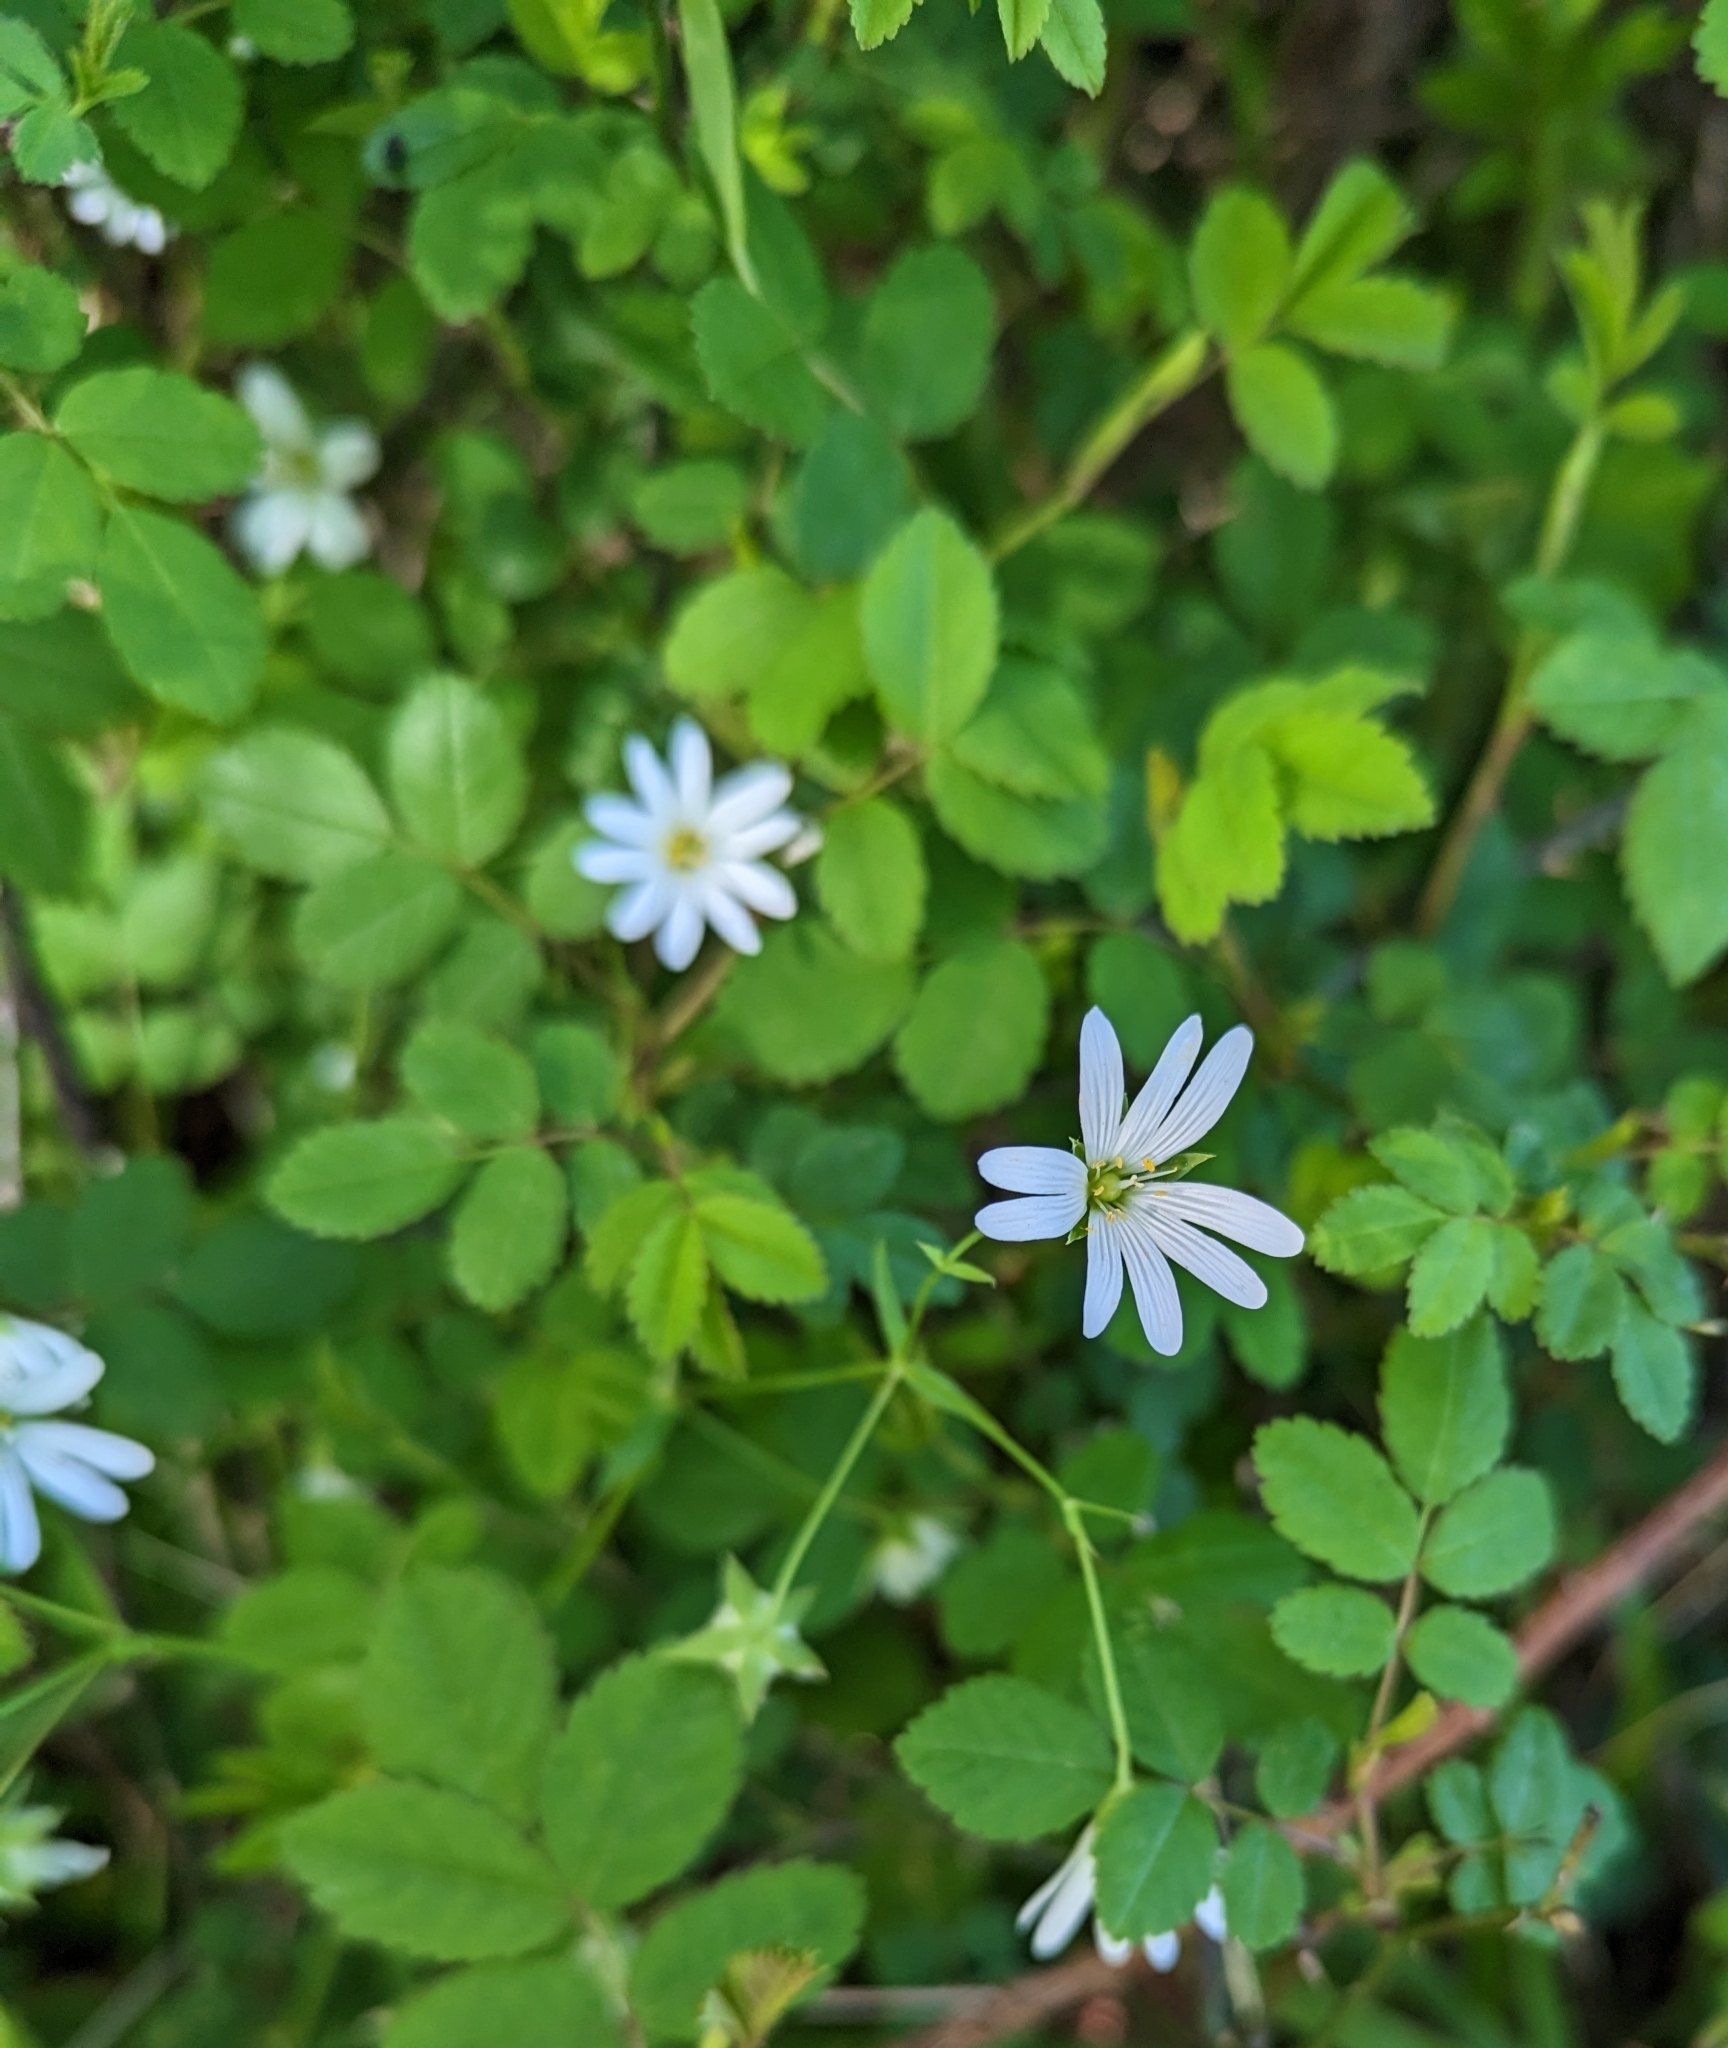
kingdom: Plantae
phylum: Tracheophyta
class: Magnoliopsida
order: Caryophyllales
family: Caryophyllaceae
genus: Rabelera
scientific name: Rabelera holostea
